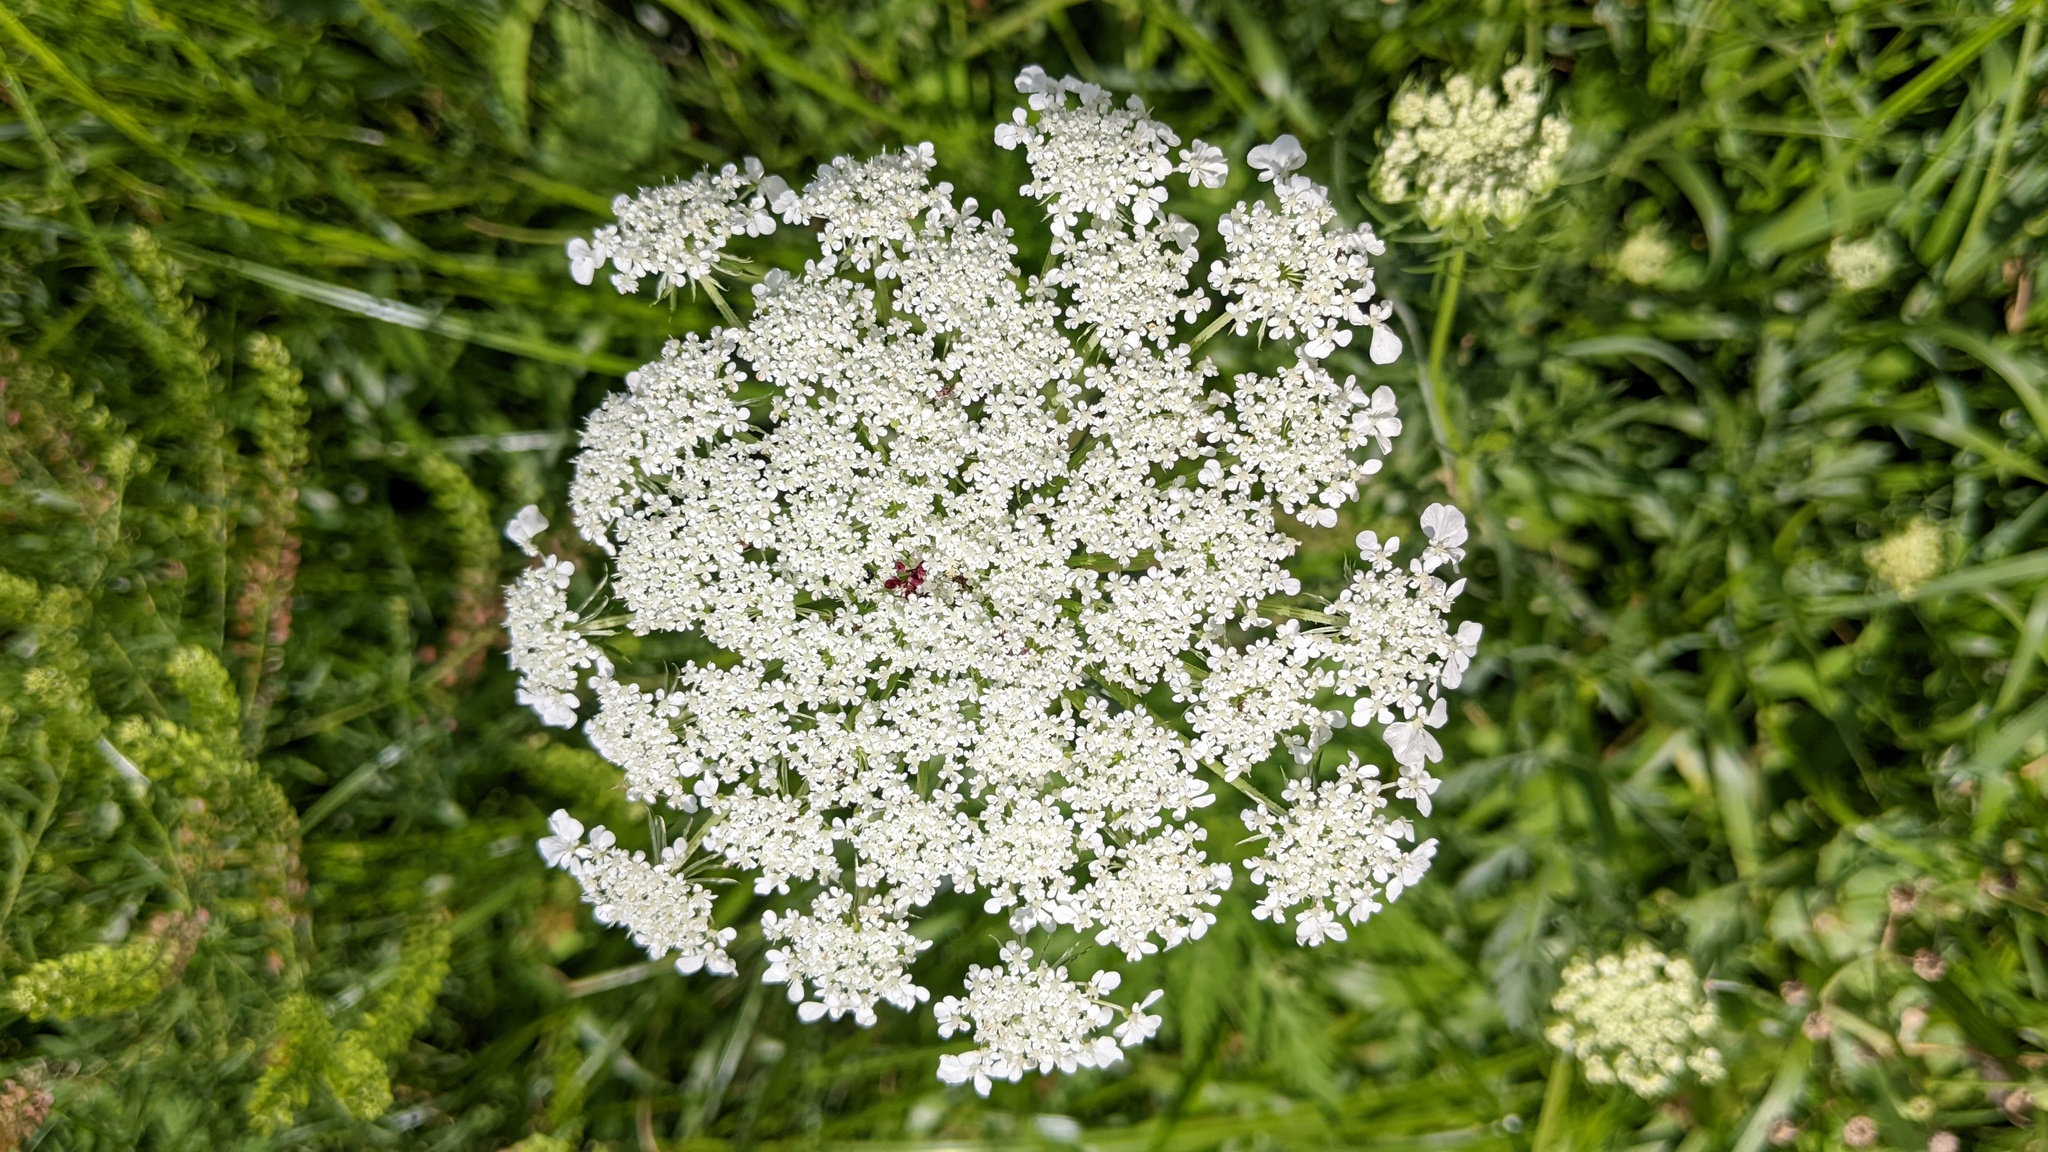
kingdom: Plantae
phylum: Tracheophyta
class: Magnoliopsida
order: Apiales
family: Apiaceae
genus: Daucus
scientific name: Daucus carota
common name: Wild carrot
